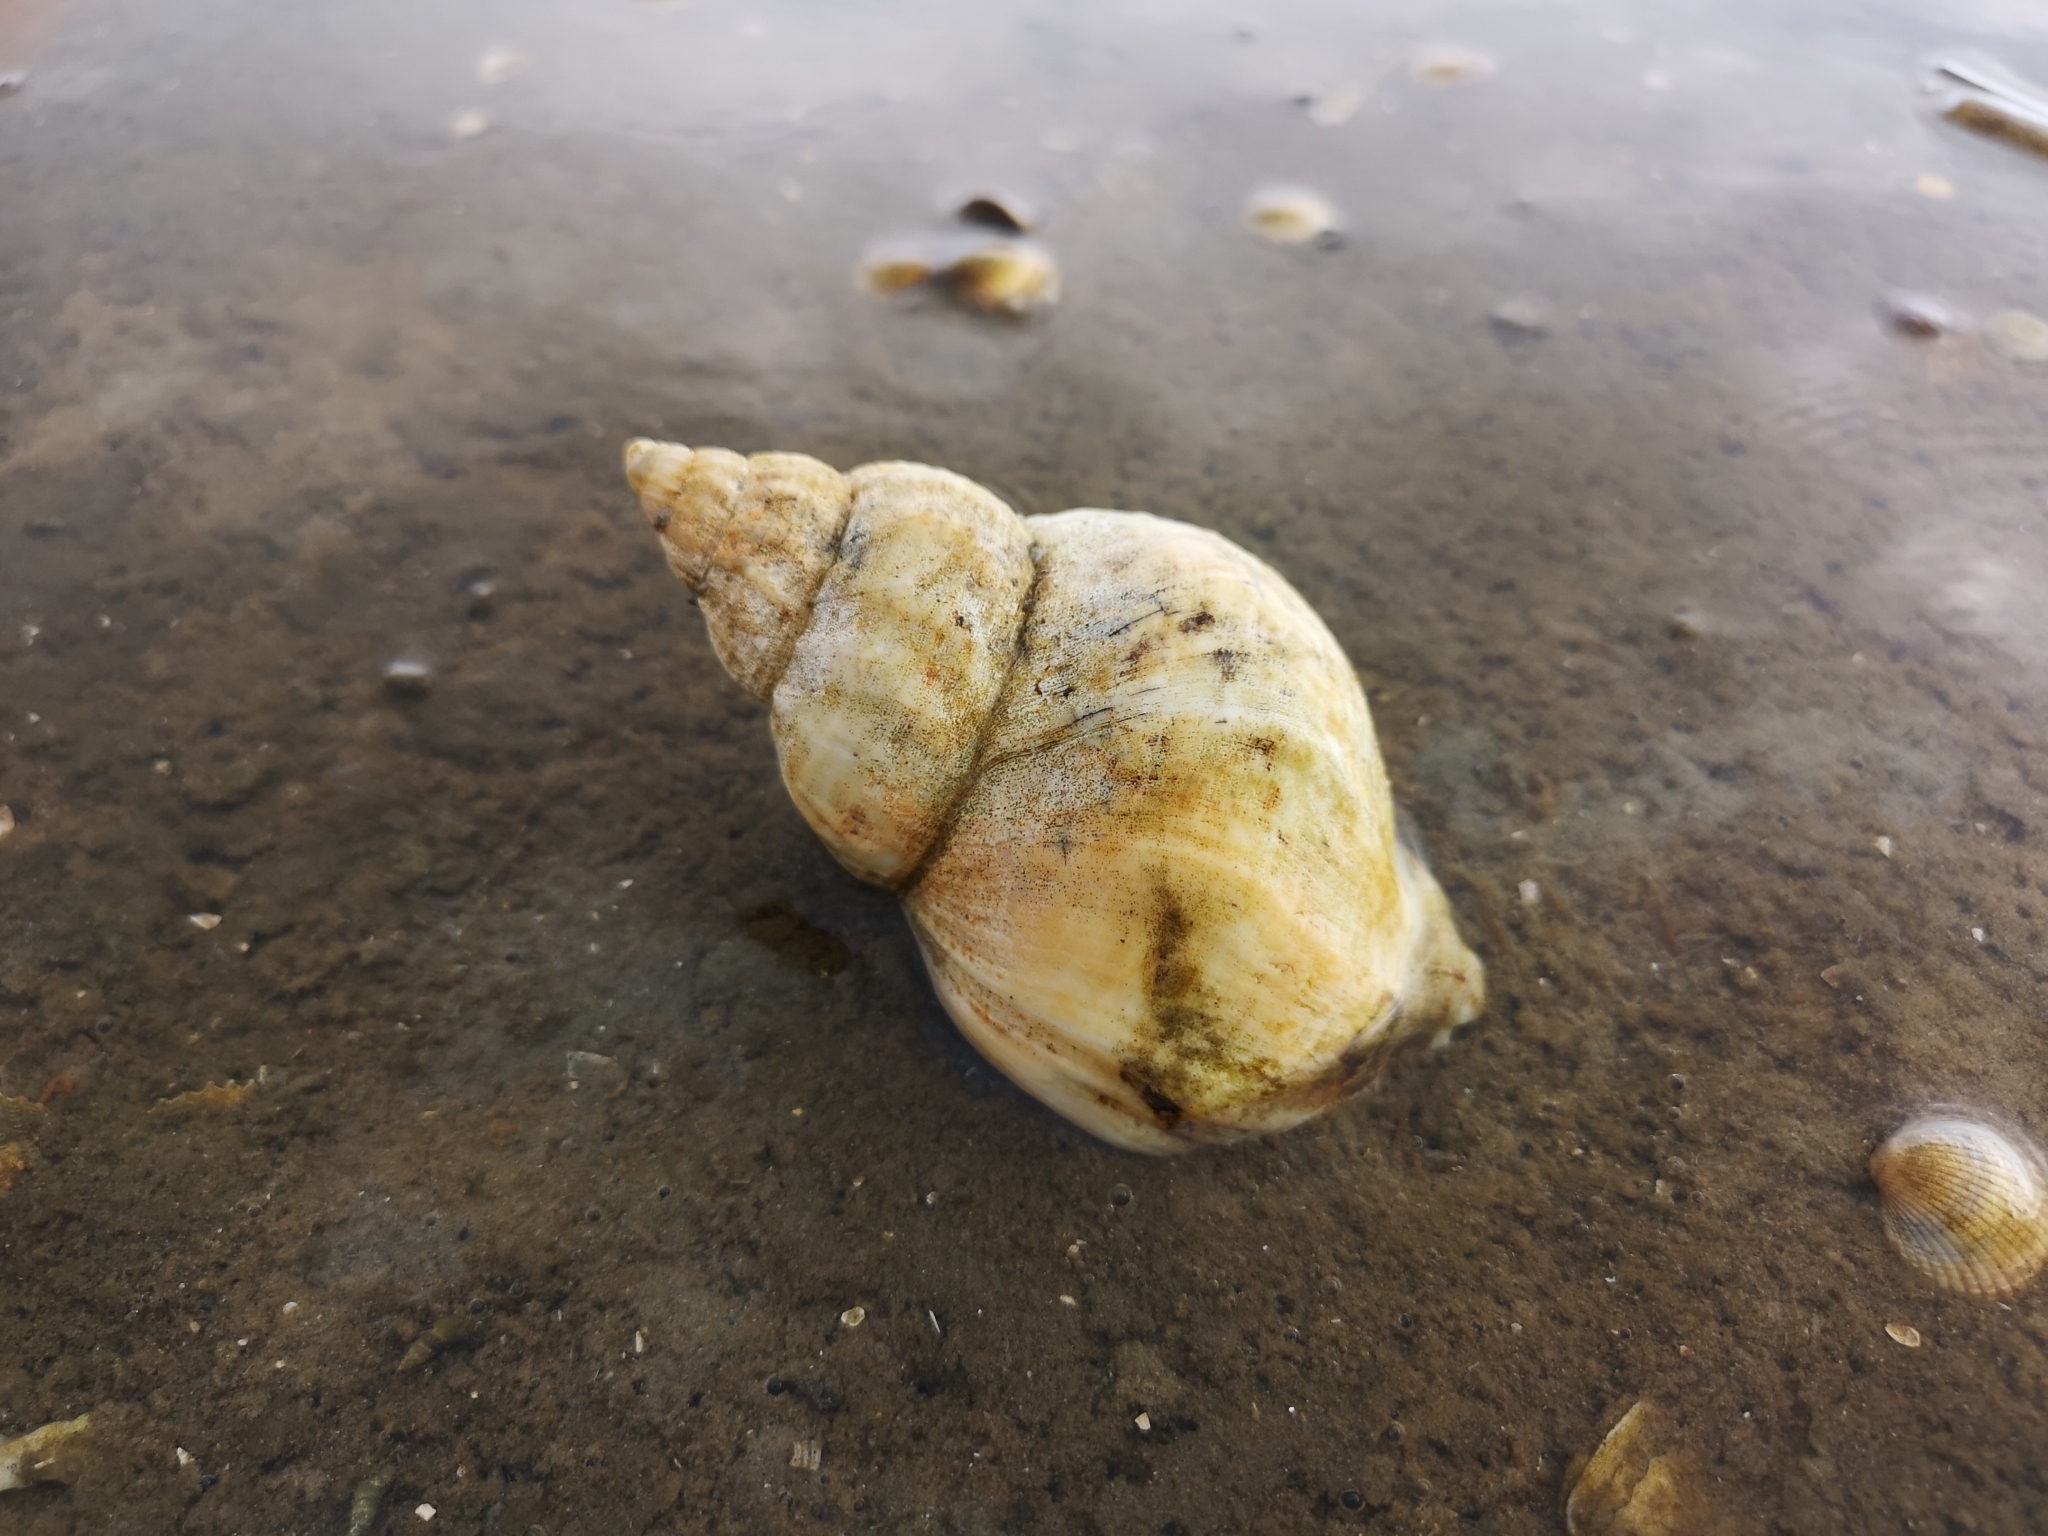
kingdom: Animalia
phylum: Mollusca
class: Gastropoda
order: Neogastropoda
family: Buccinidae
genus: Buccinum
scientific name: Buccinum undatum
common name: Common whelk
